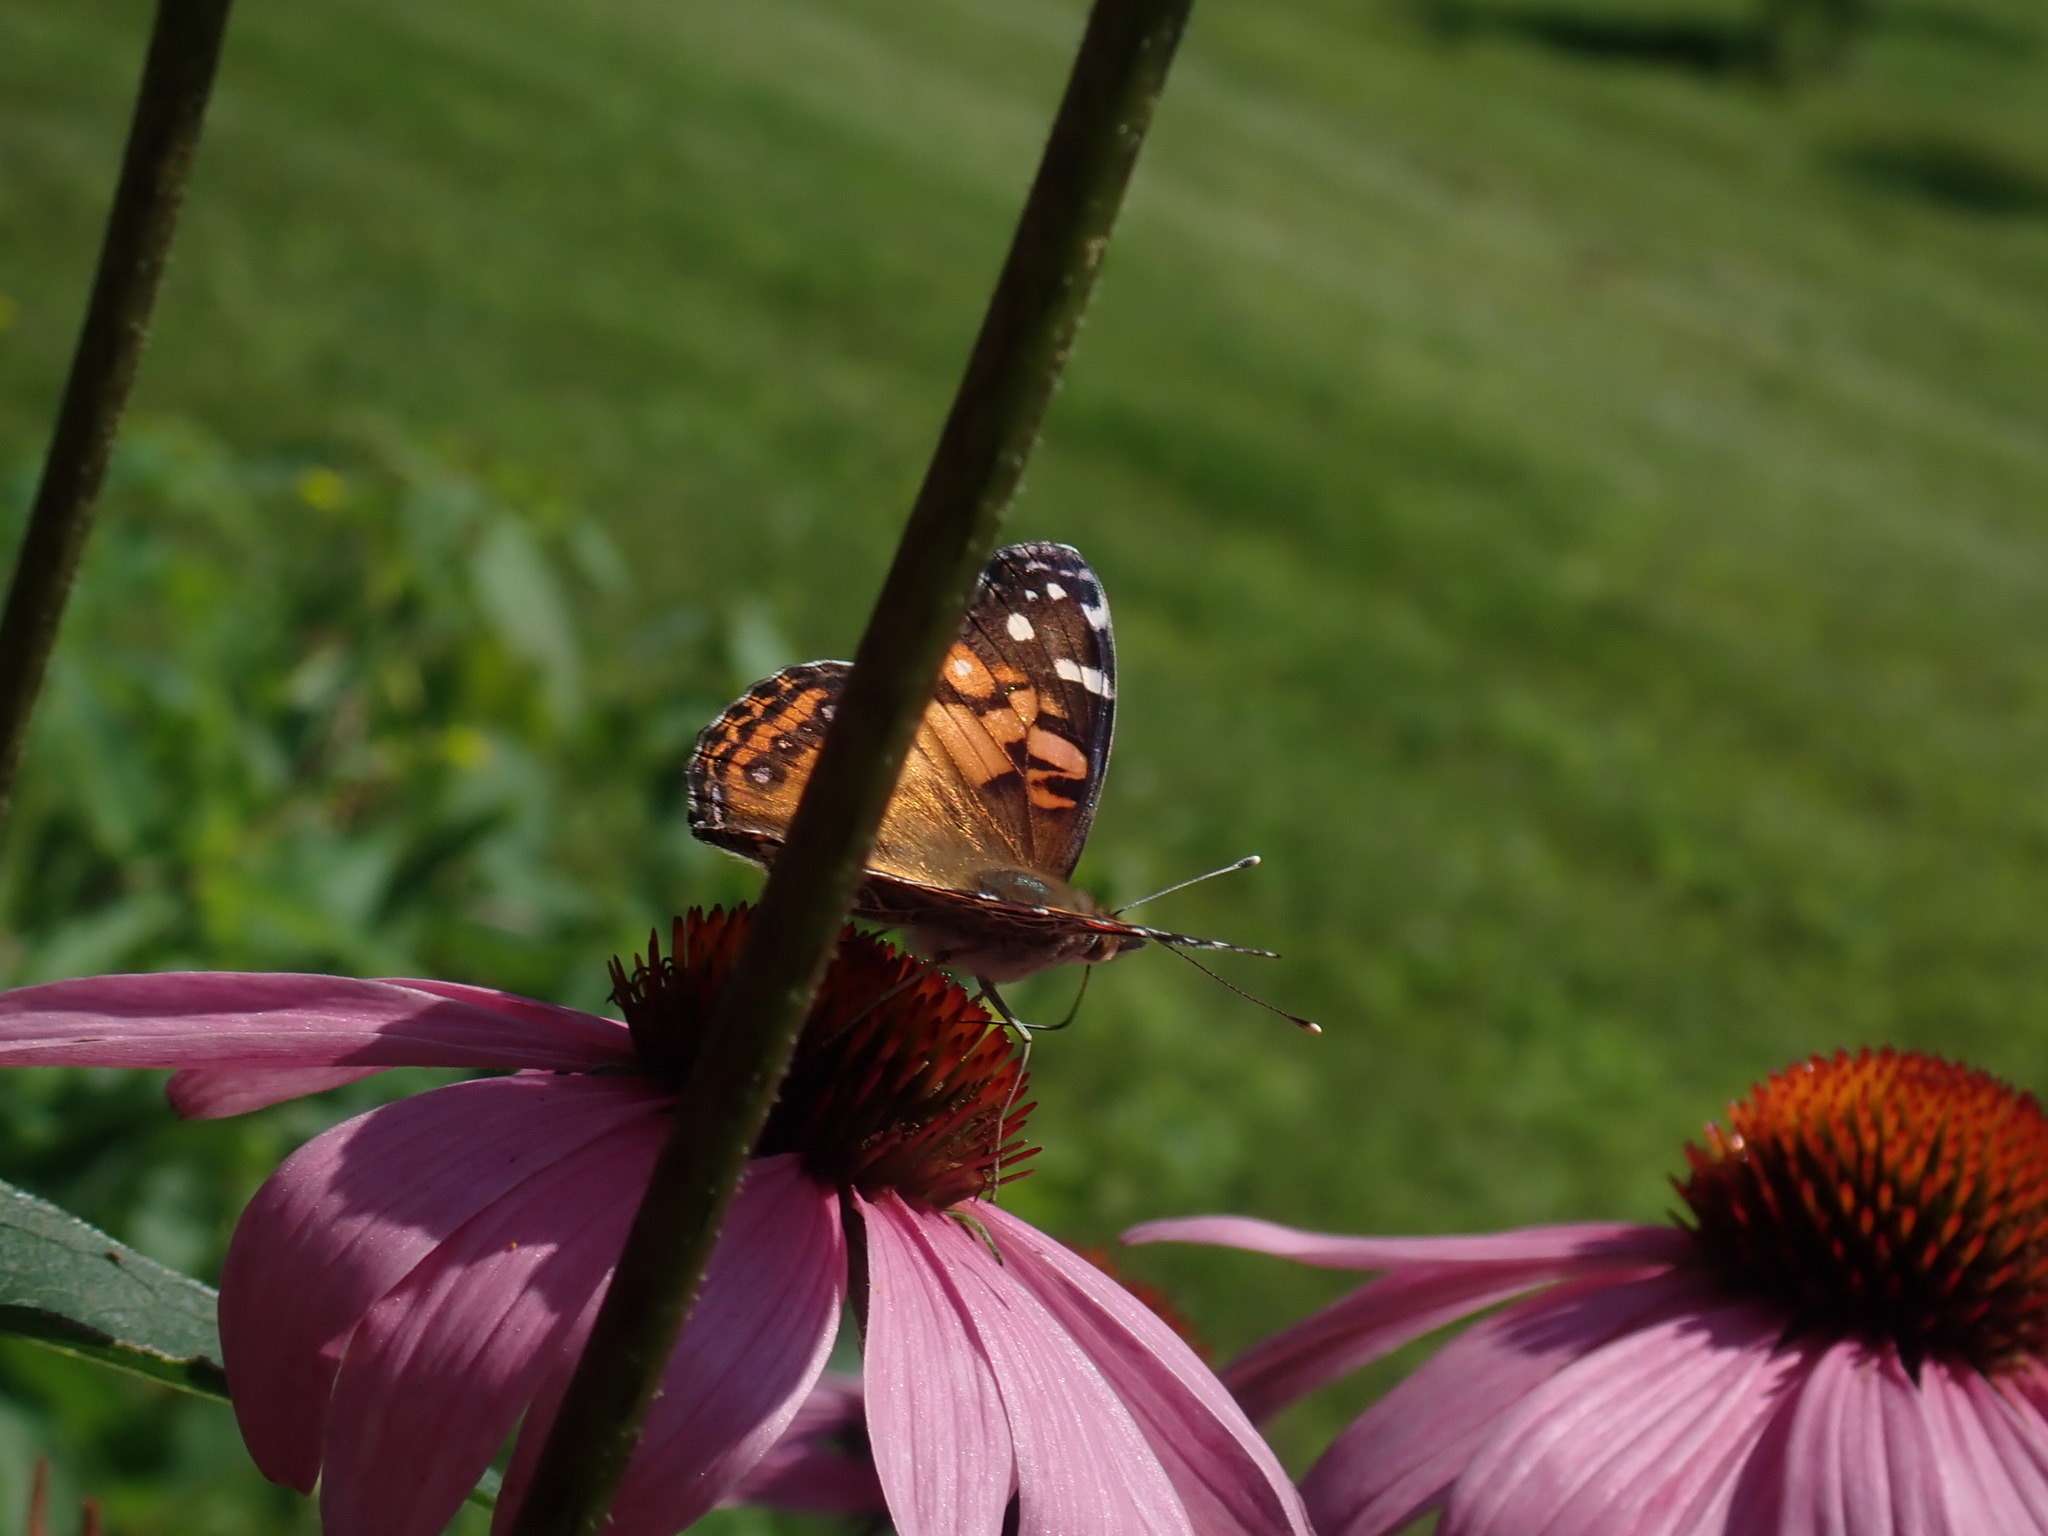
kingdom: Animalia
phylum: Arthropoda
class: Insecta
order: Lepidoptera
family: Nymphalidae
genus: Vanessa
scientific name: Vanessa virginiensis
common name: American lady
